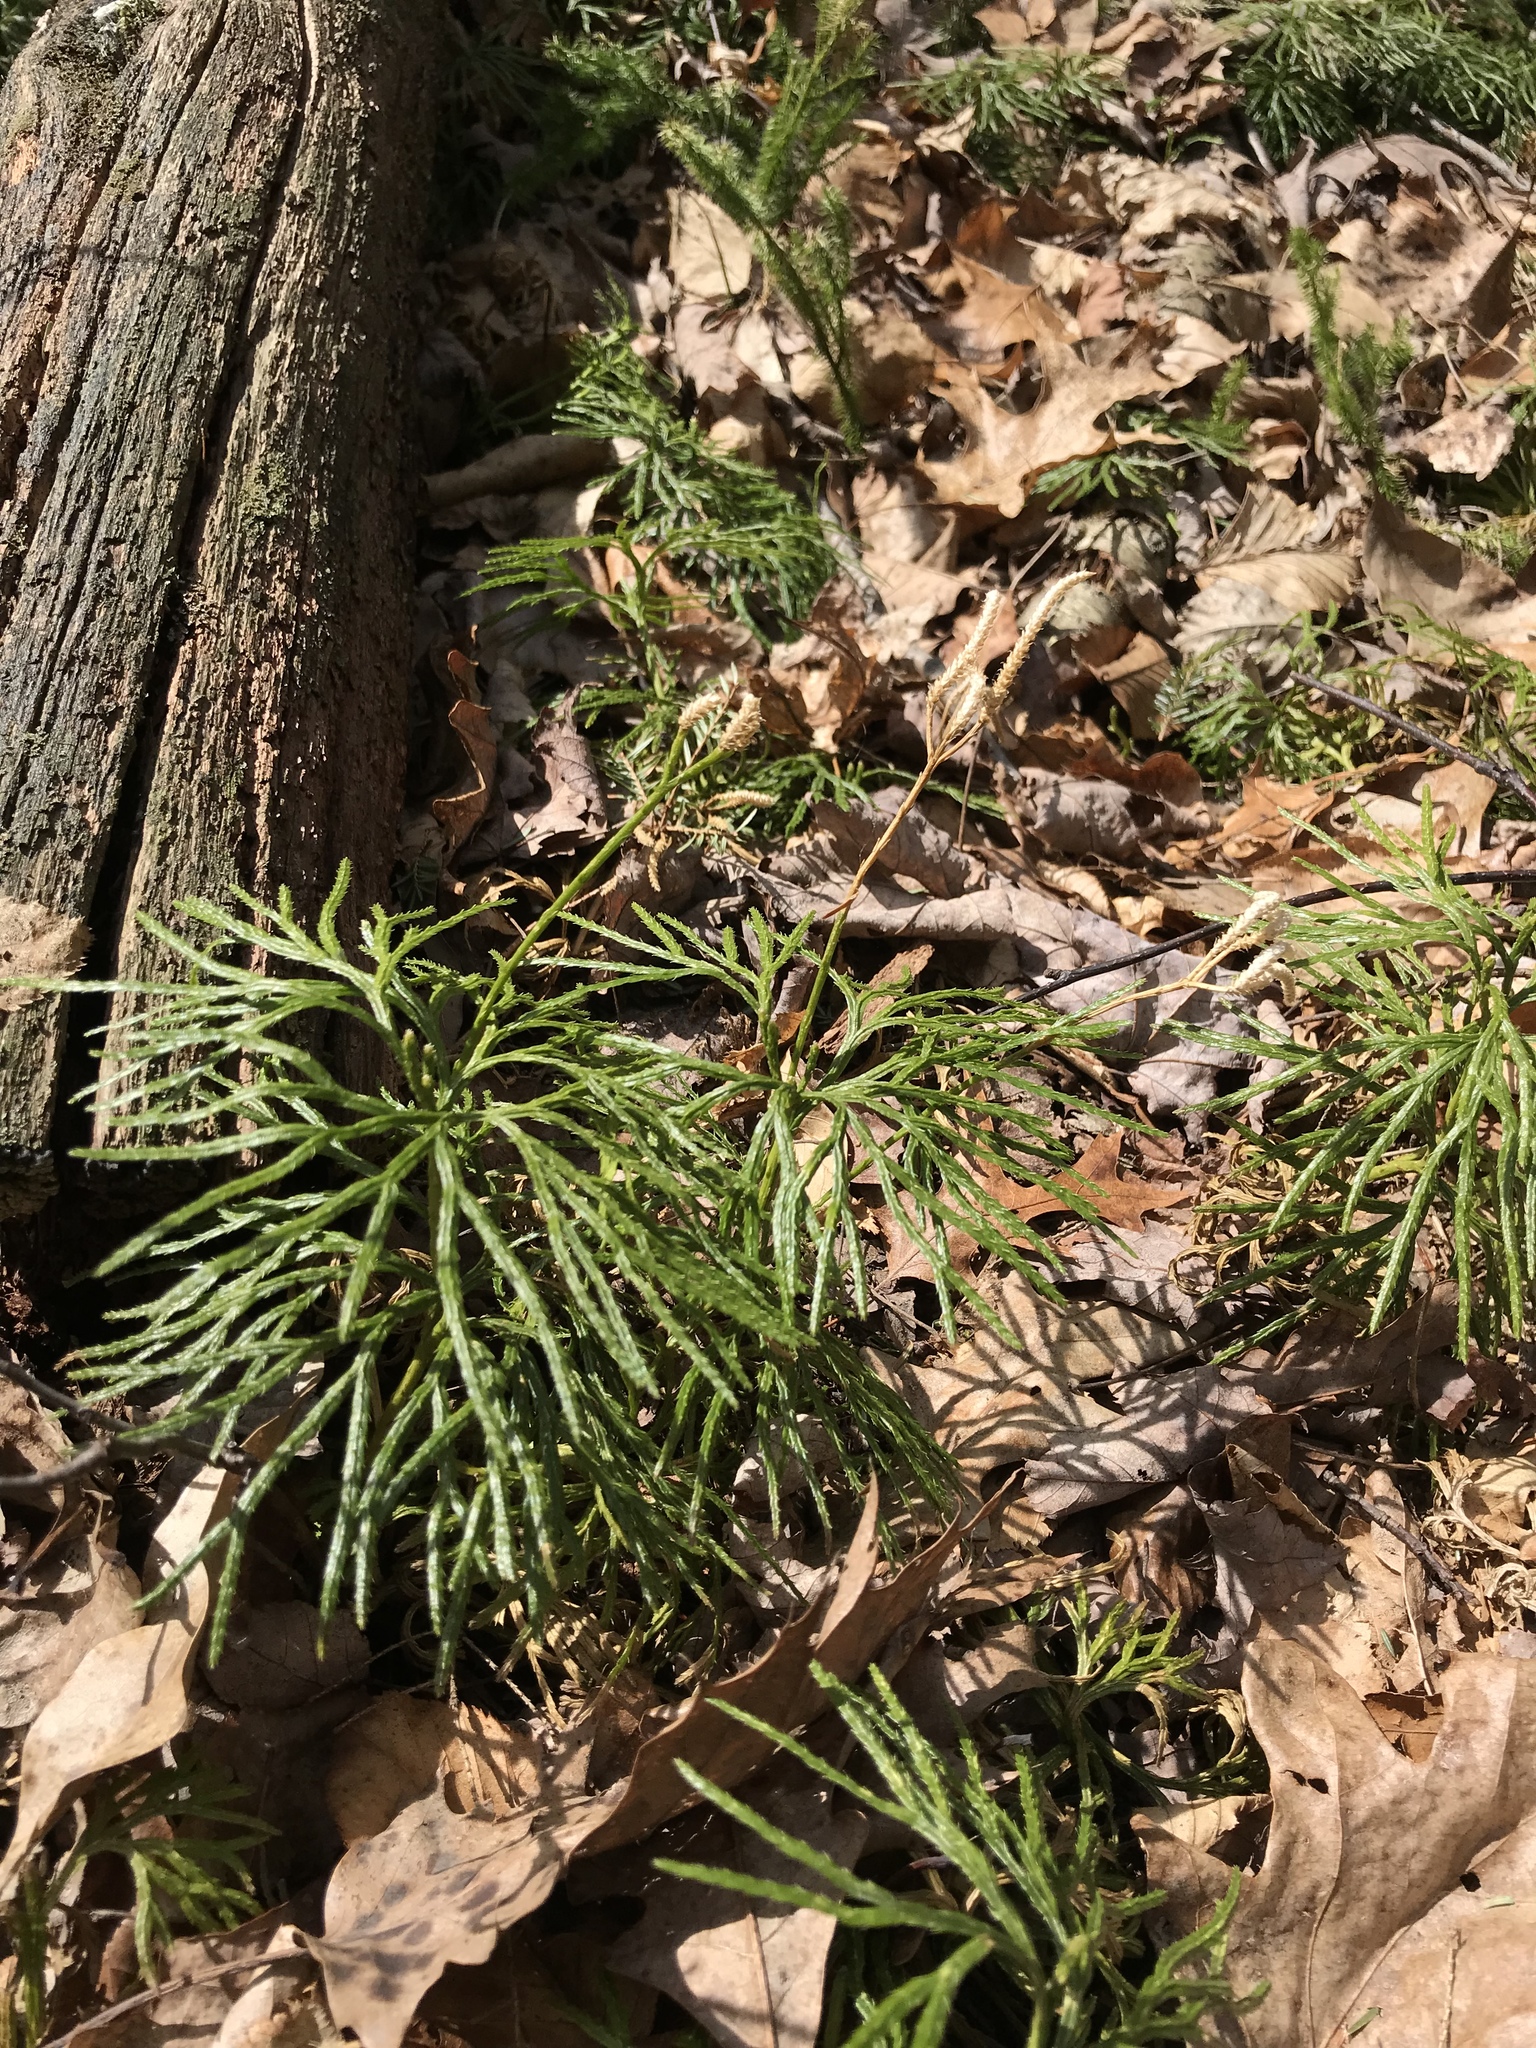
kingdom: Plantae
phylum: Tracheophyta
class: Lycopodiopsida
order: Lycopodiales
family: Lycopodiaceae
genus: Diphasiastrum
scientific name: Diphasiastrum digitatum
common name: Southern running-pine
